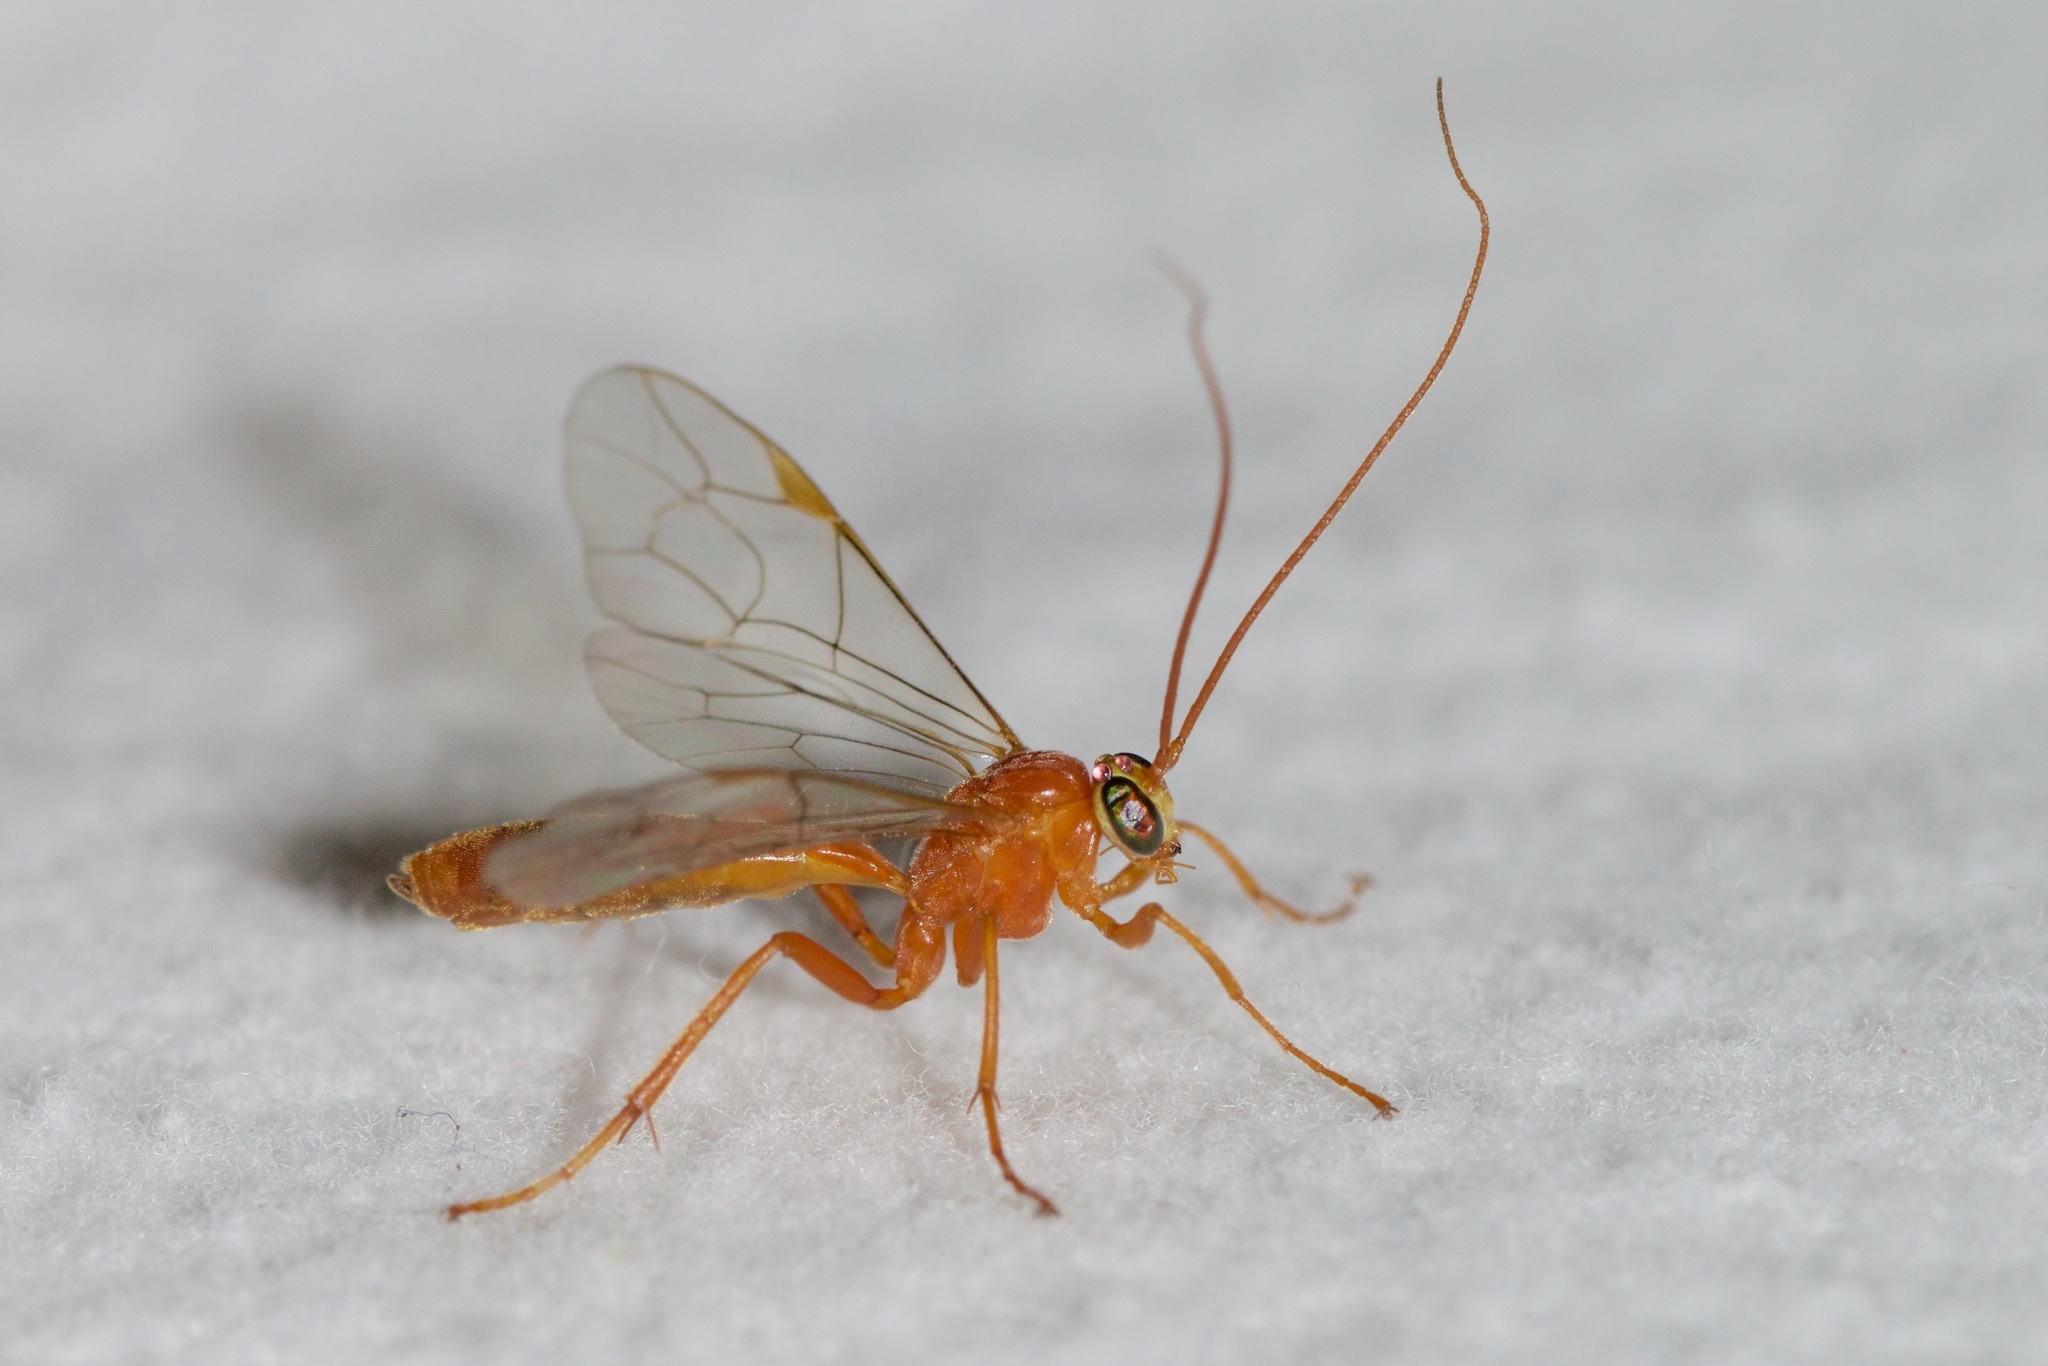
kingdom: Animalia
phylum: Arthropoda
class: Insecta
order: Hymenoptera
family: Ichneumonidae
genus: Netelia
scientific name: Netelia
